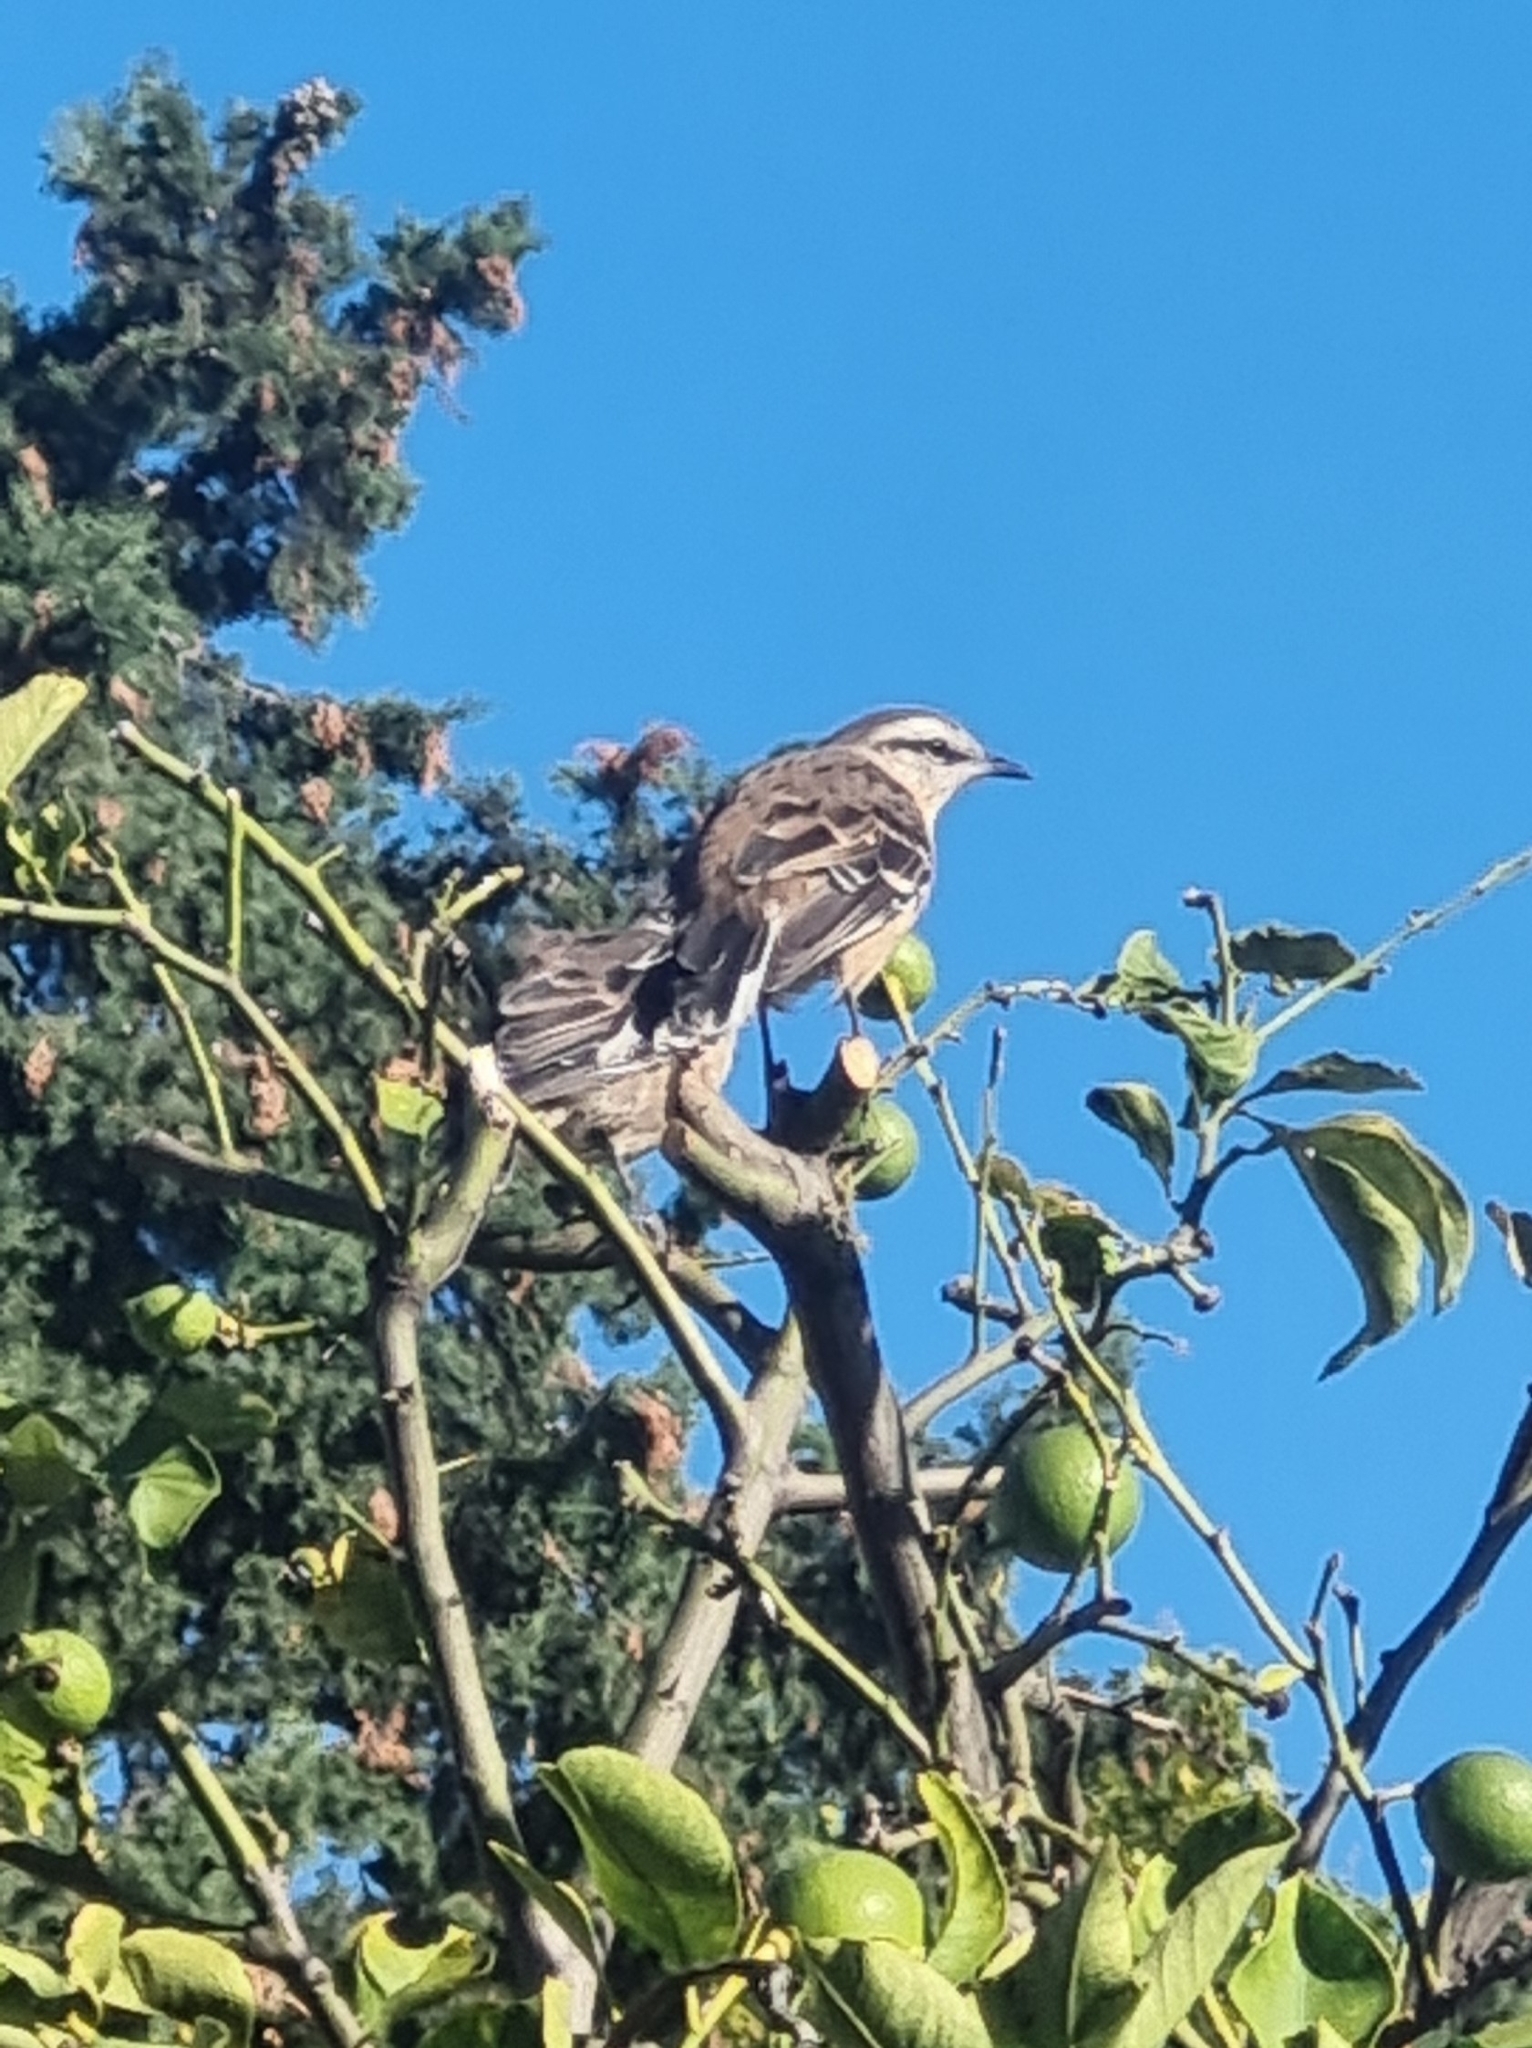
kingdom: Animalia
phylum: Chordata
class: Aves
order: Passeriformes
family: Mimidae
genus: Mimus
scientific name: Mimus saturninus
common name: Chalk-browed mockingbird
